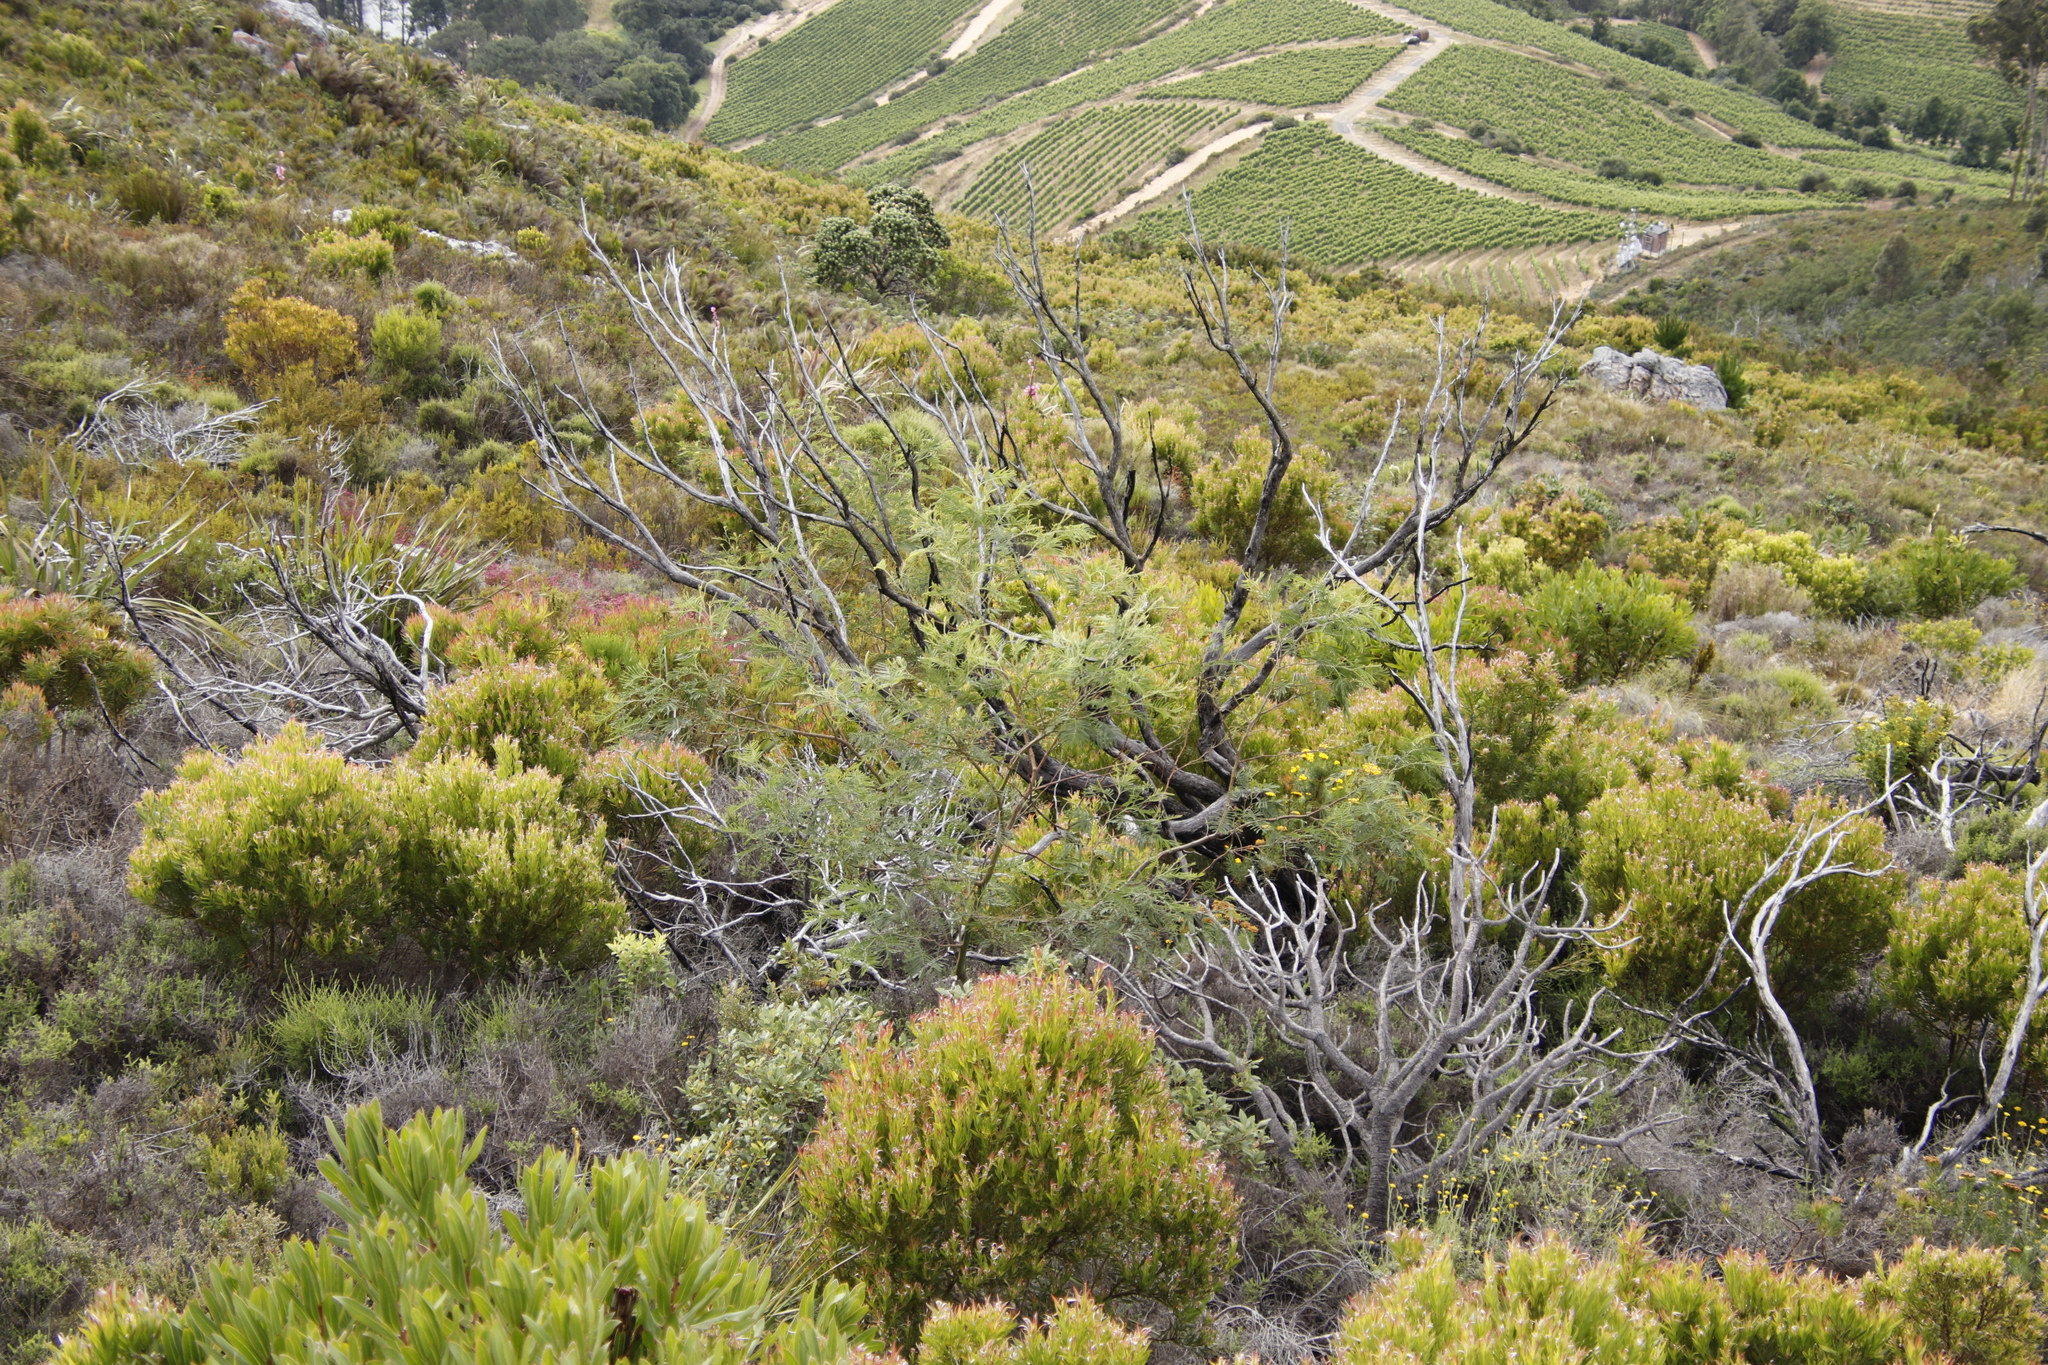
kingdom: Plantae
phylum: Tracheophyta
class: Magnoliopsida
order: Fabales
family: Fabaceae
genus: Acacia
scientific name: Acacia mearnsii
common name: Black wattle
